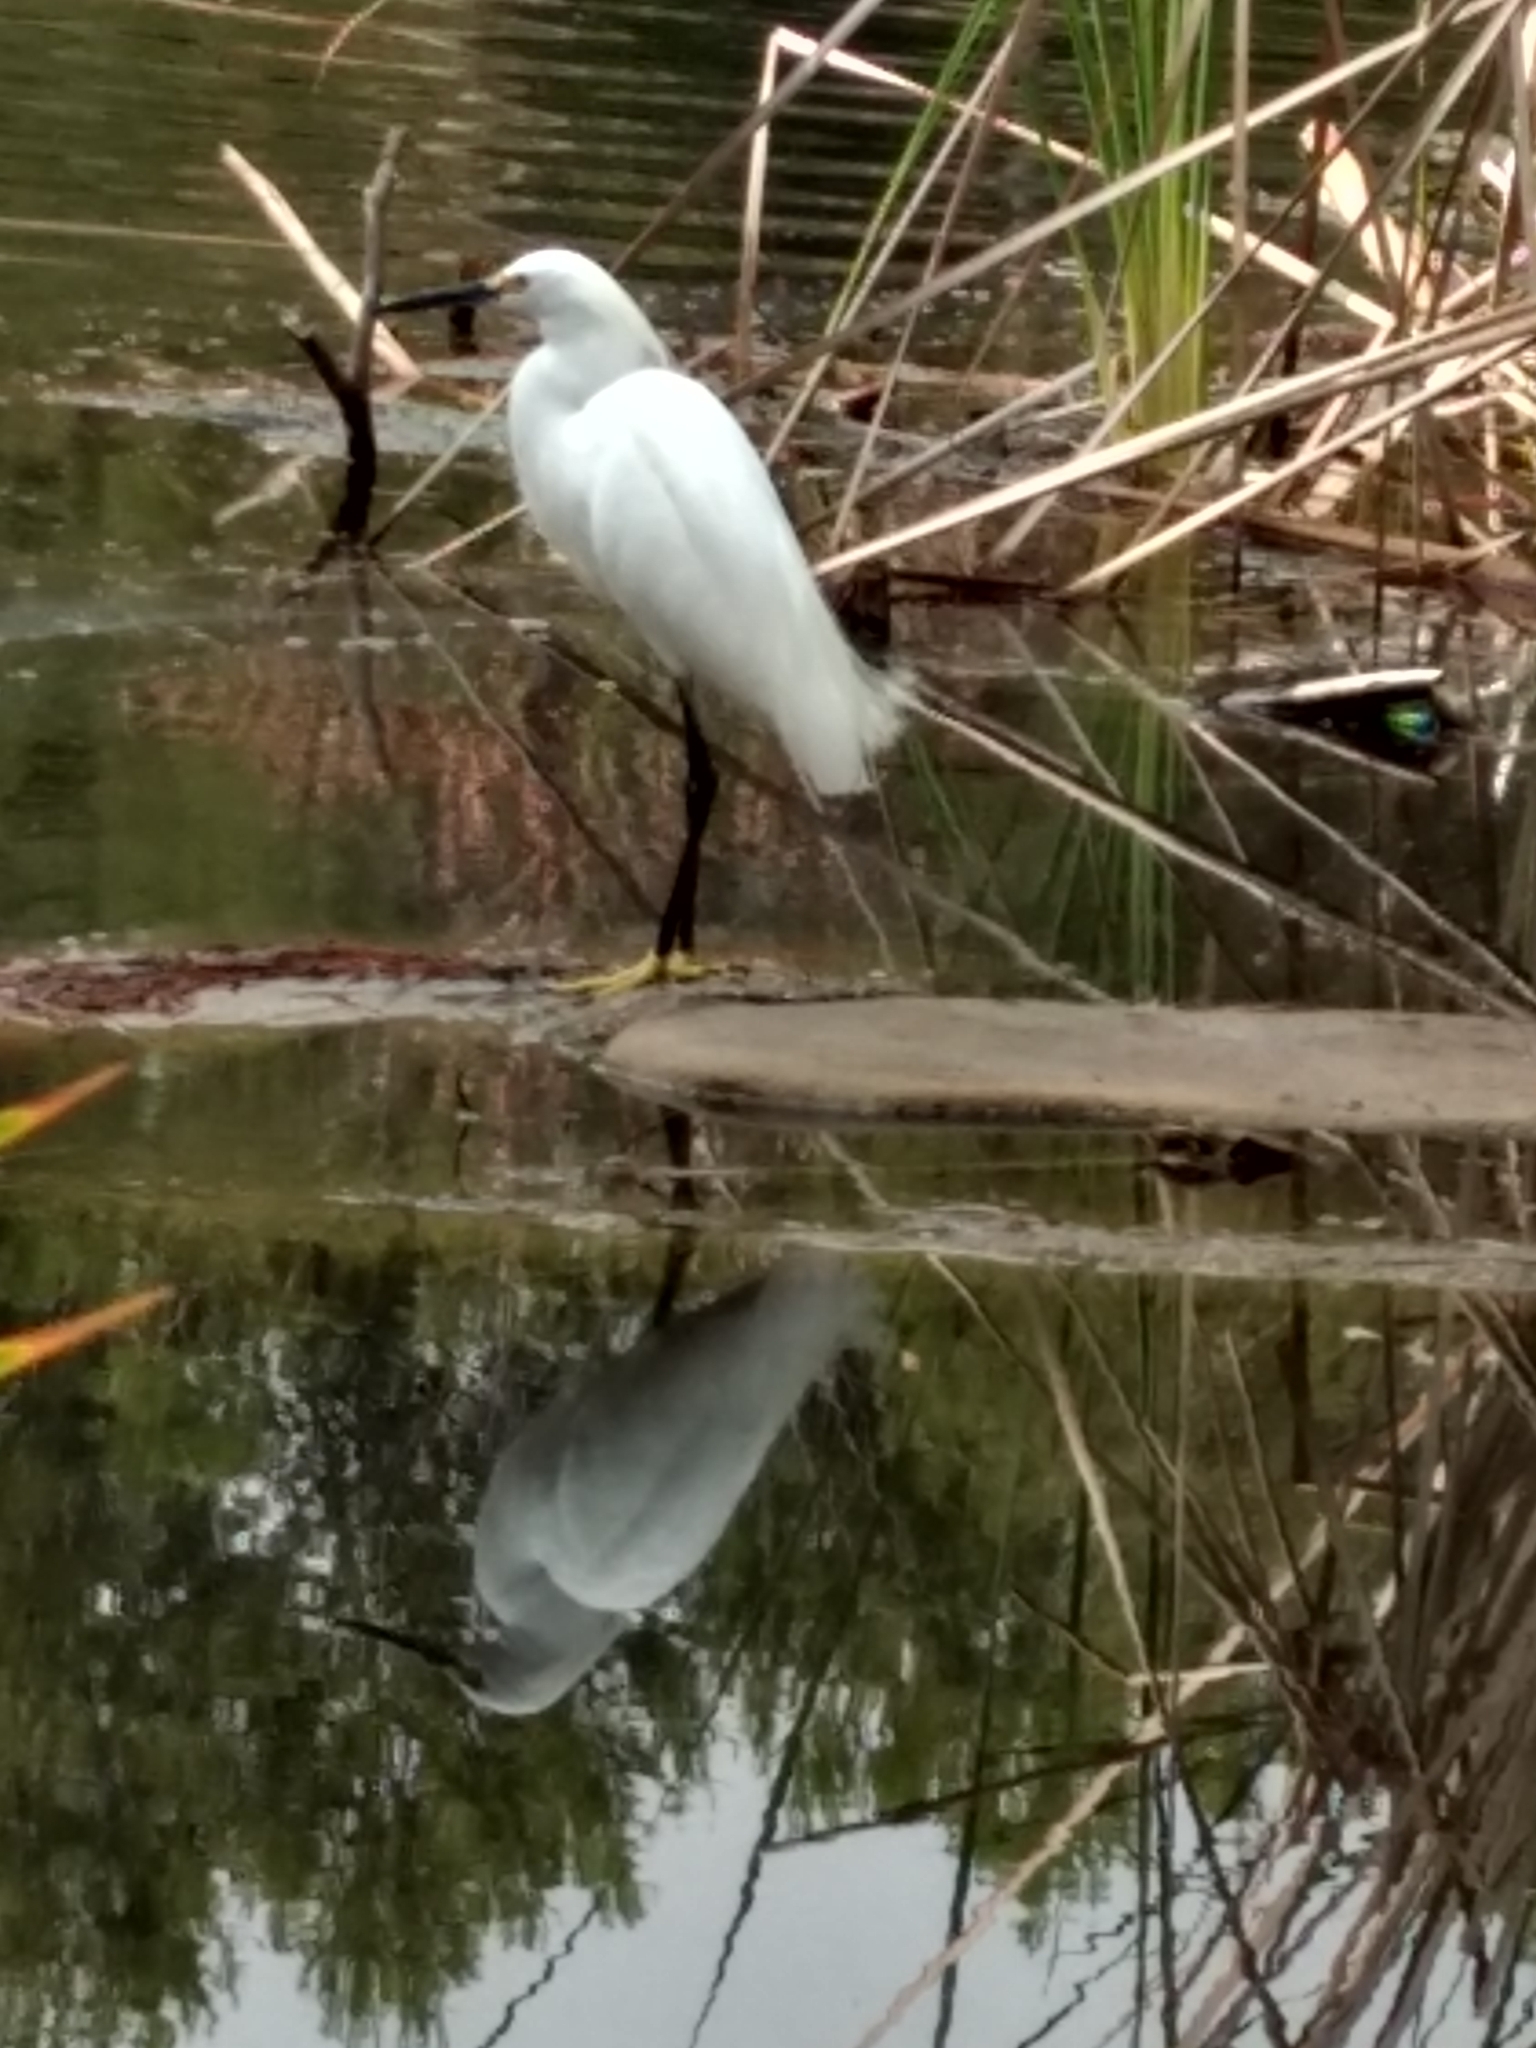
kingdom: Animalia
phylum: Chordata
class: Aves
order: Pelecaniformes
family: Ardeidae
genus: Egretta
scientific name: Egretta thula
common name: Snowy egret
